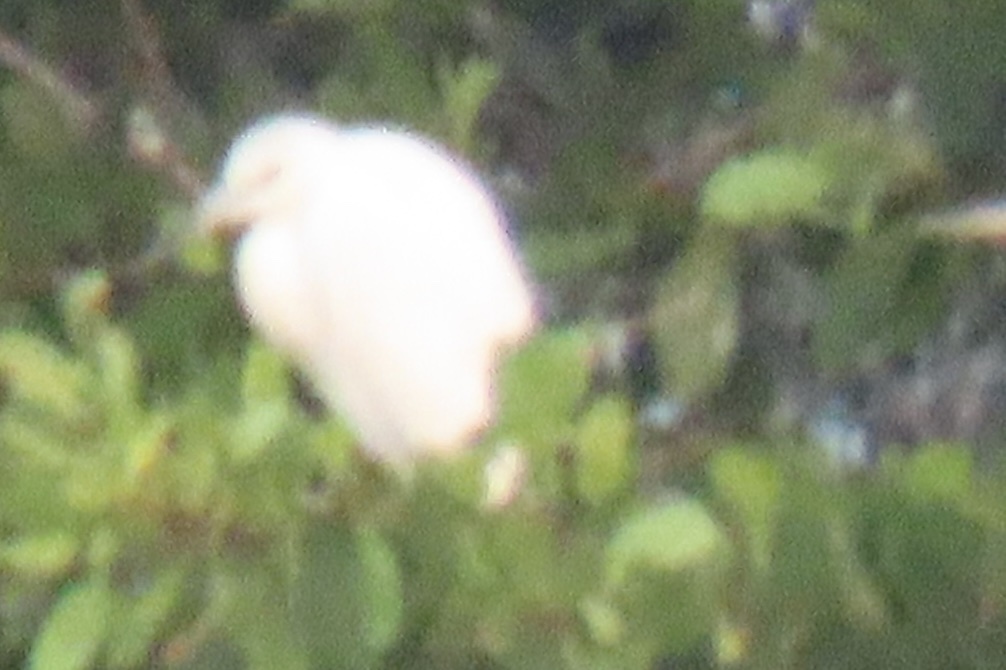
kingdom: Animalia
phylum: Chordata
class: Aves
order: Pelecaniformes
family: Ardeidae
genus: Bubulcus
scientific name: Bubulcus ibis
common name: Cattle egret
